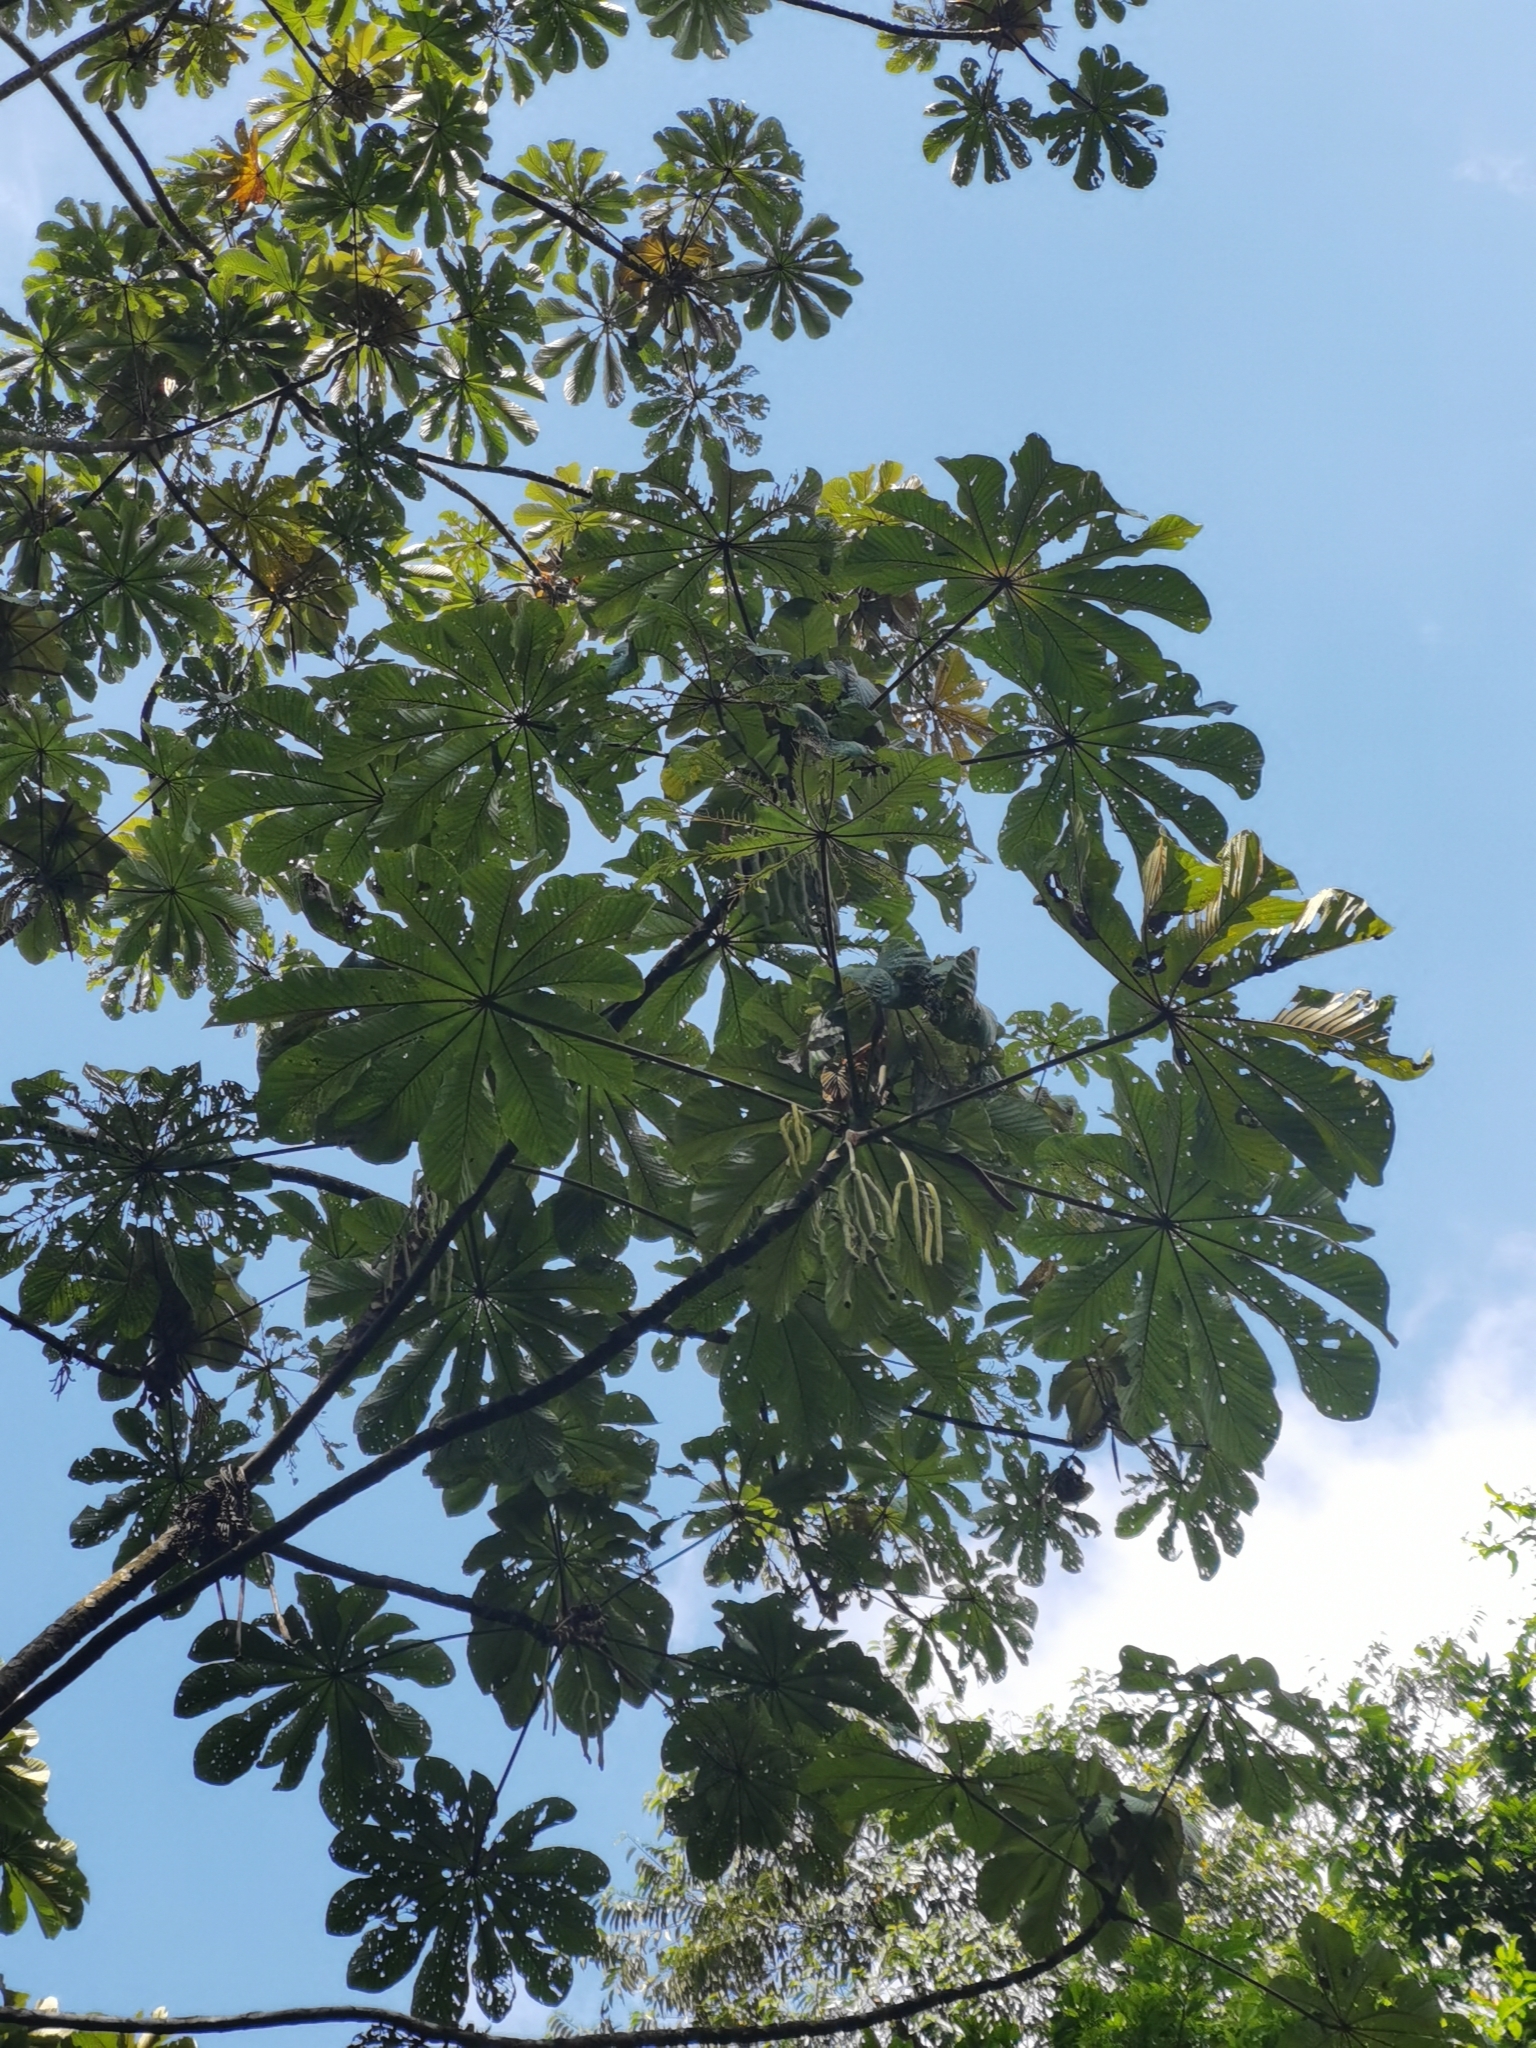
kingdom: Plantae
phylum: Tracheophyta
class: Magnoliopsida
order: Rosales
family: Urticaceae
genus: Cecropia
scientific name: Cecropia obtusifolia
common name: Trumpet tree
